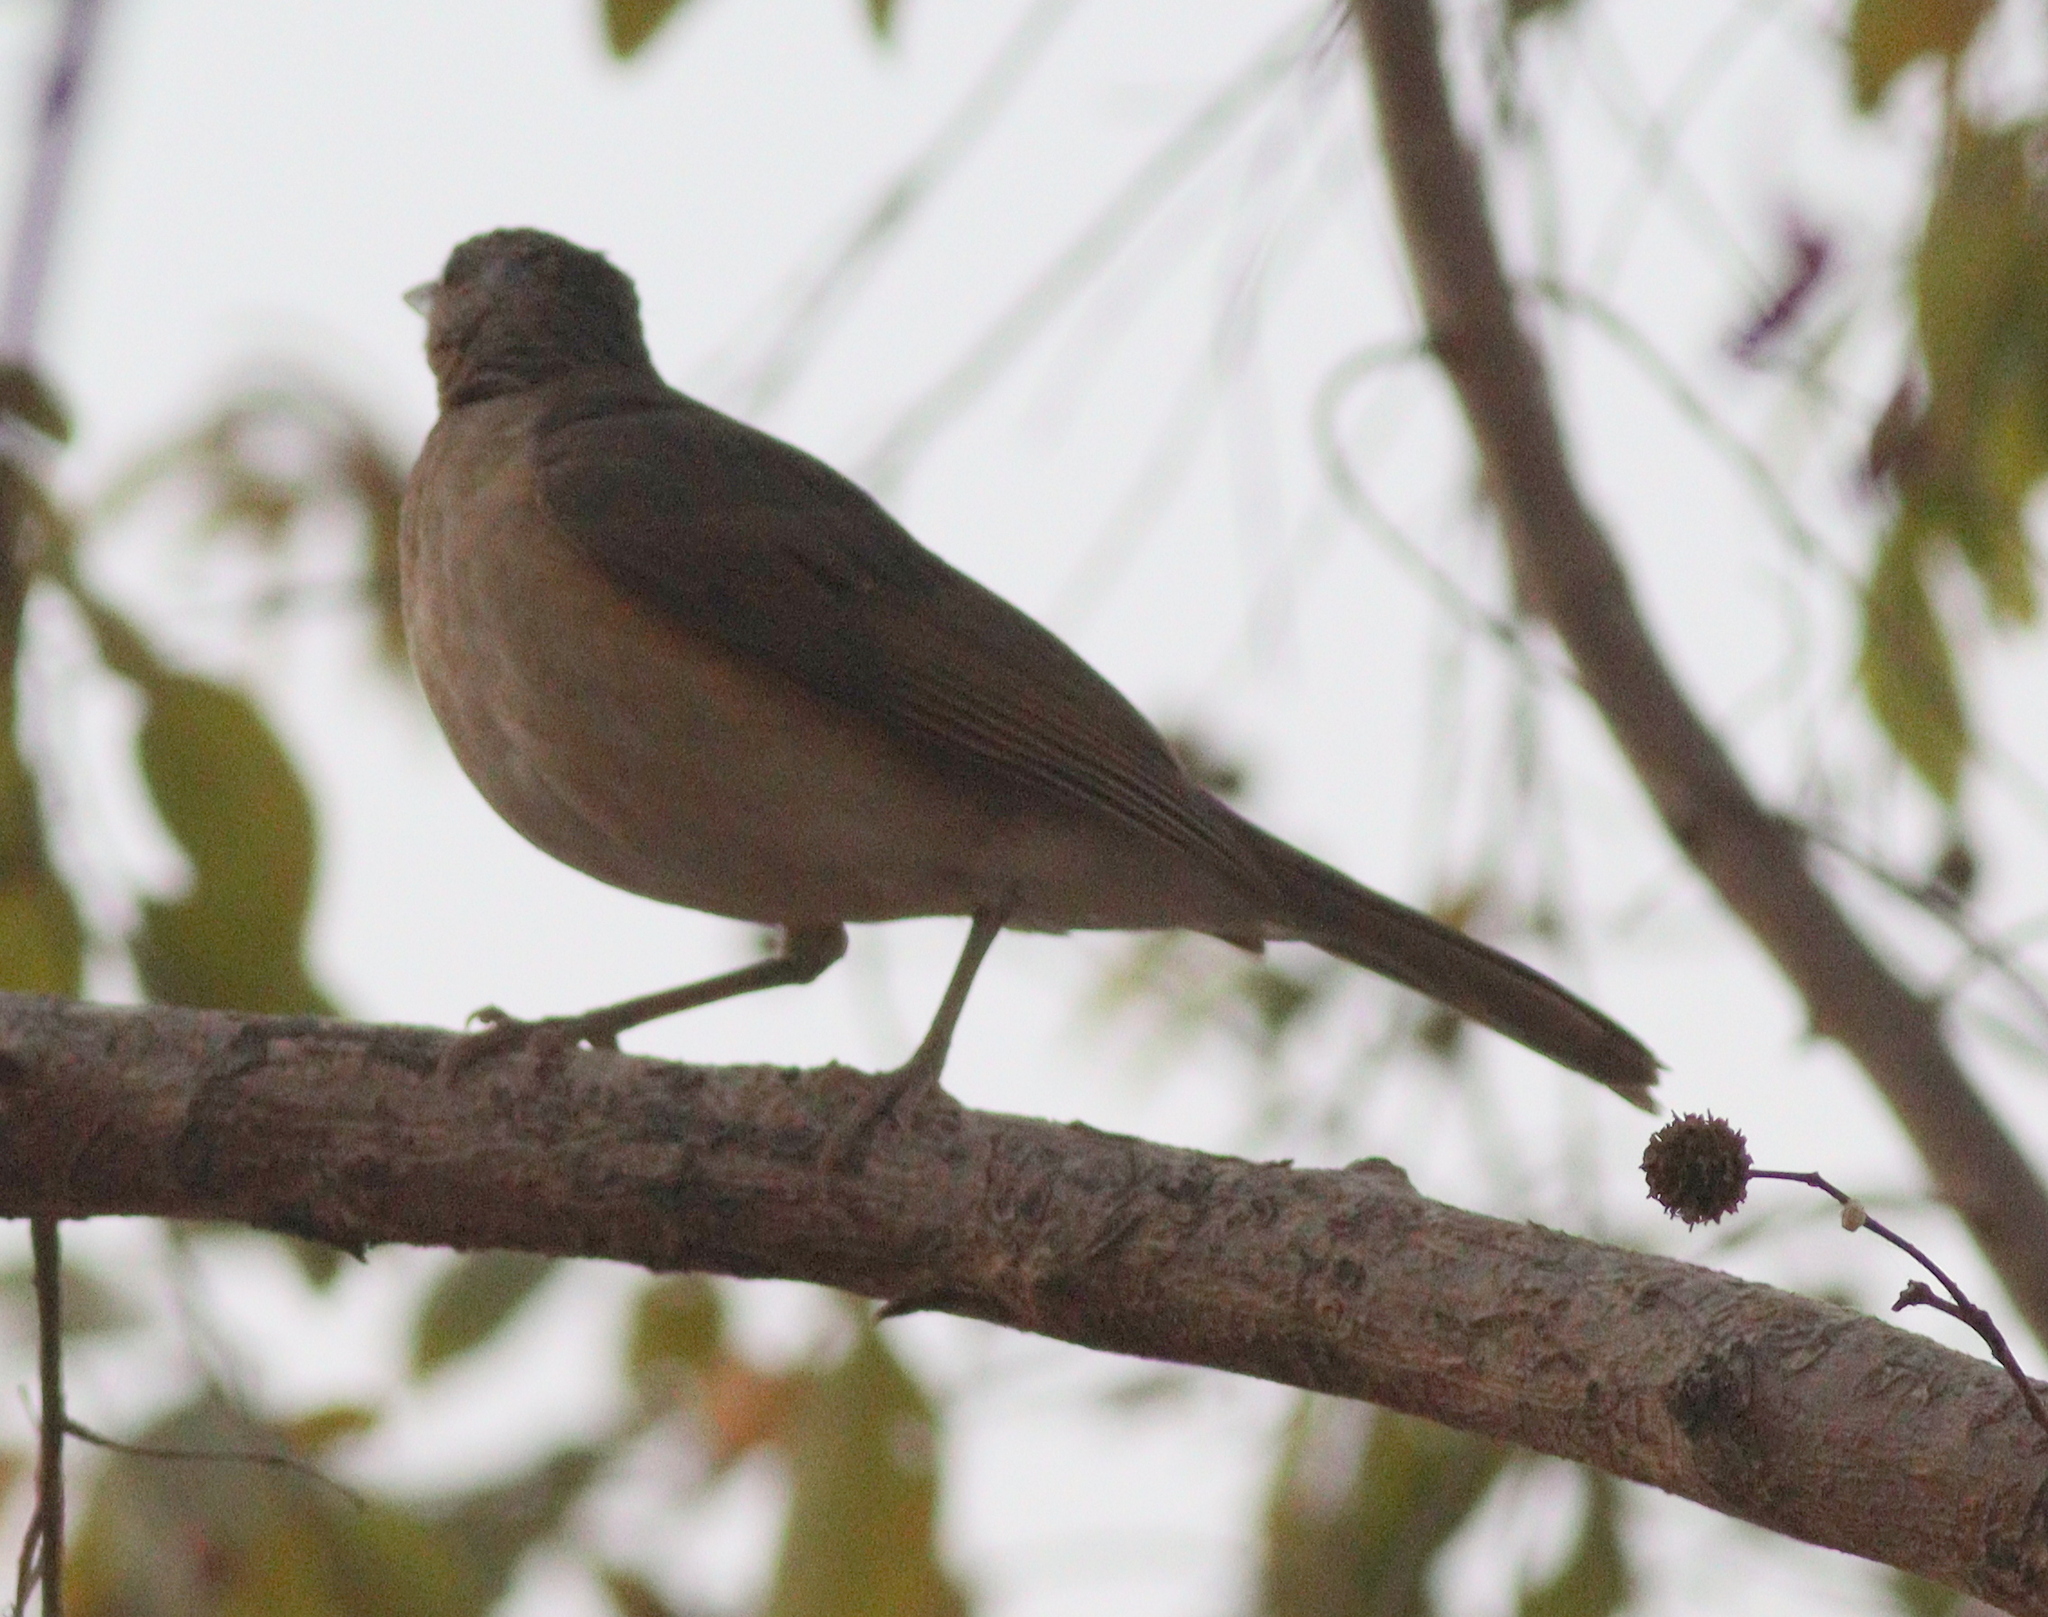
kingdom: Animalia
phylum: Chordata
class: Aves
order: Passeriformes
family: Turdidae
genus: Turdus
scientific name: Turdus pelios
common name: African thrush
